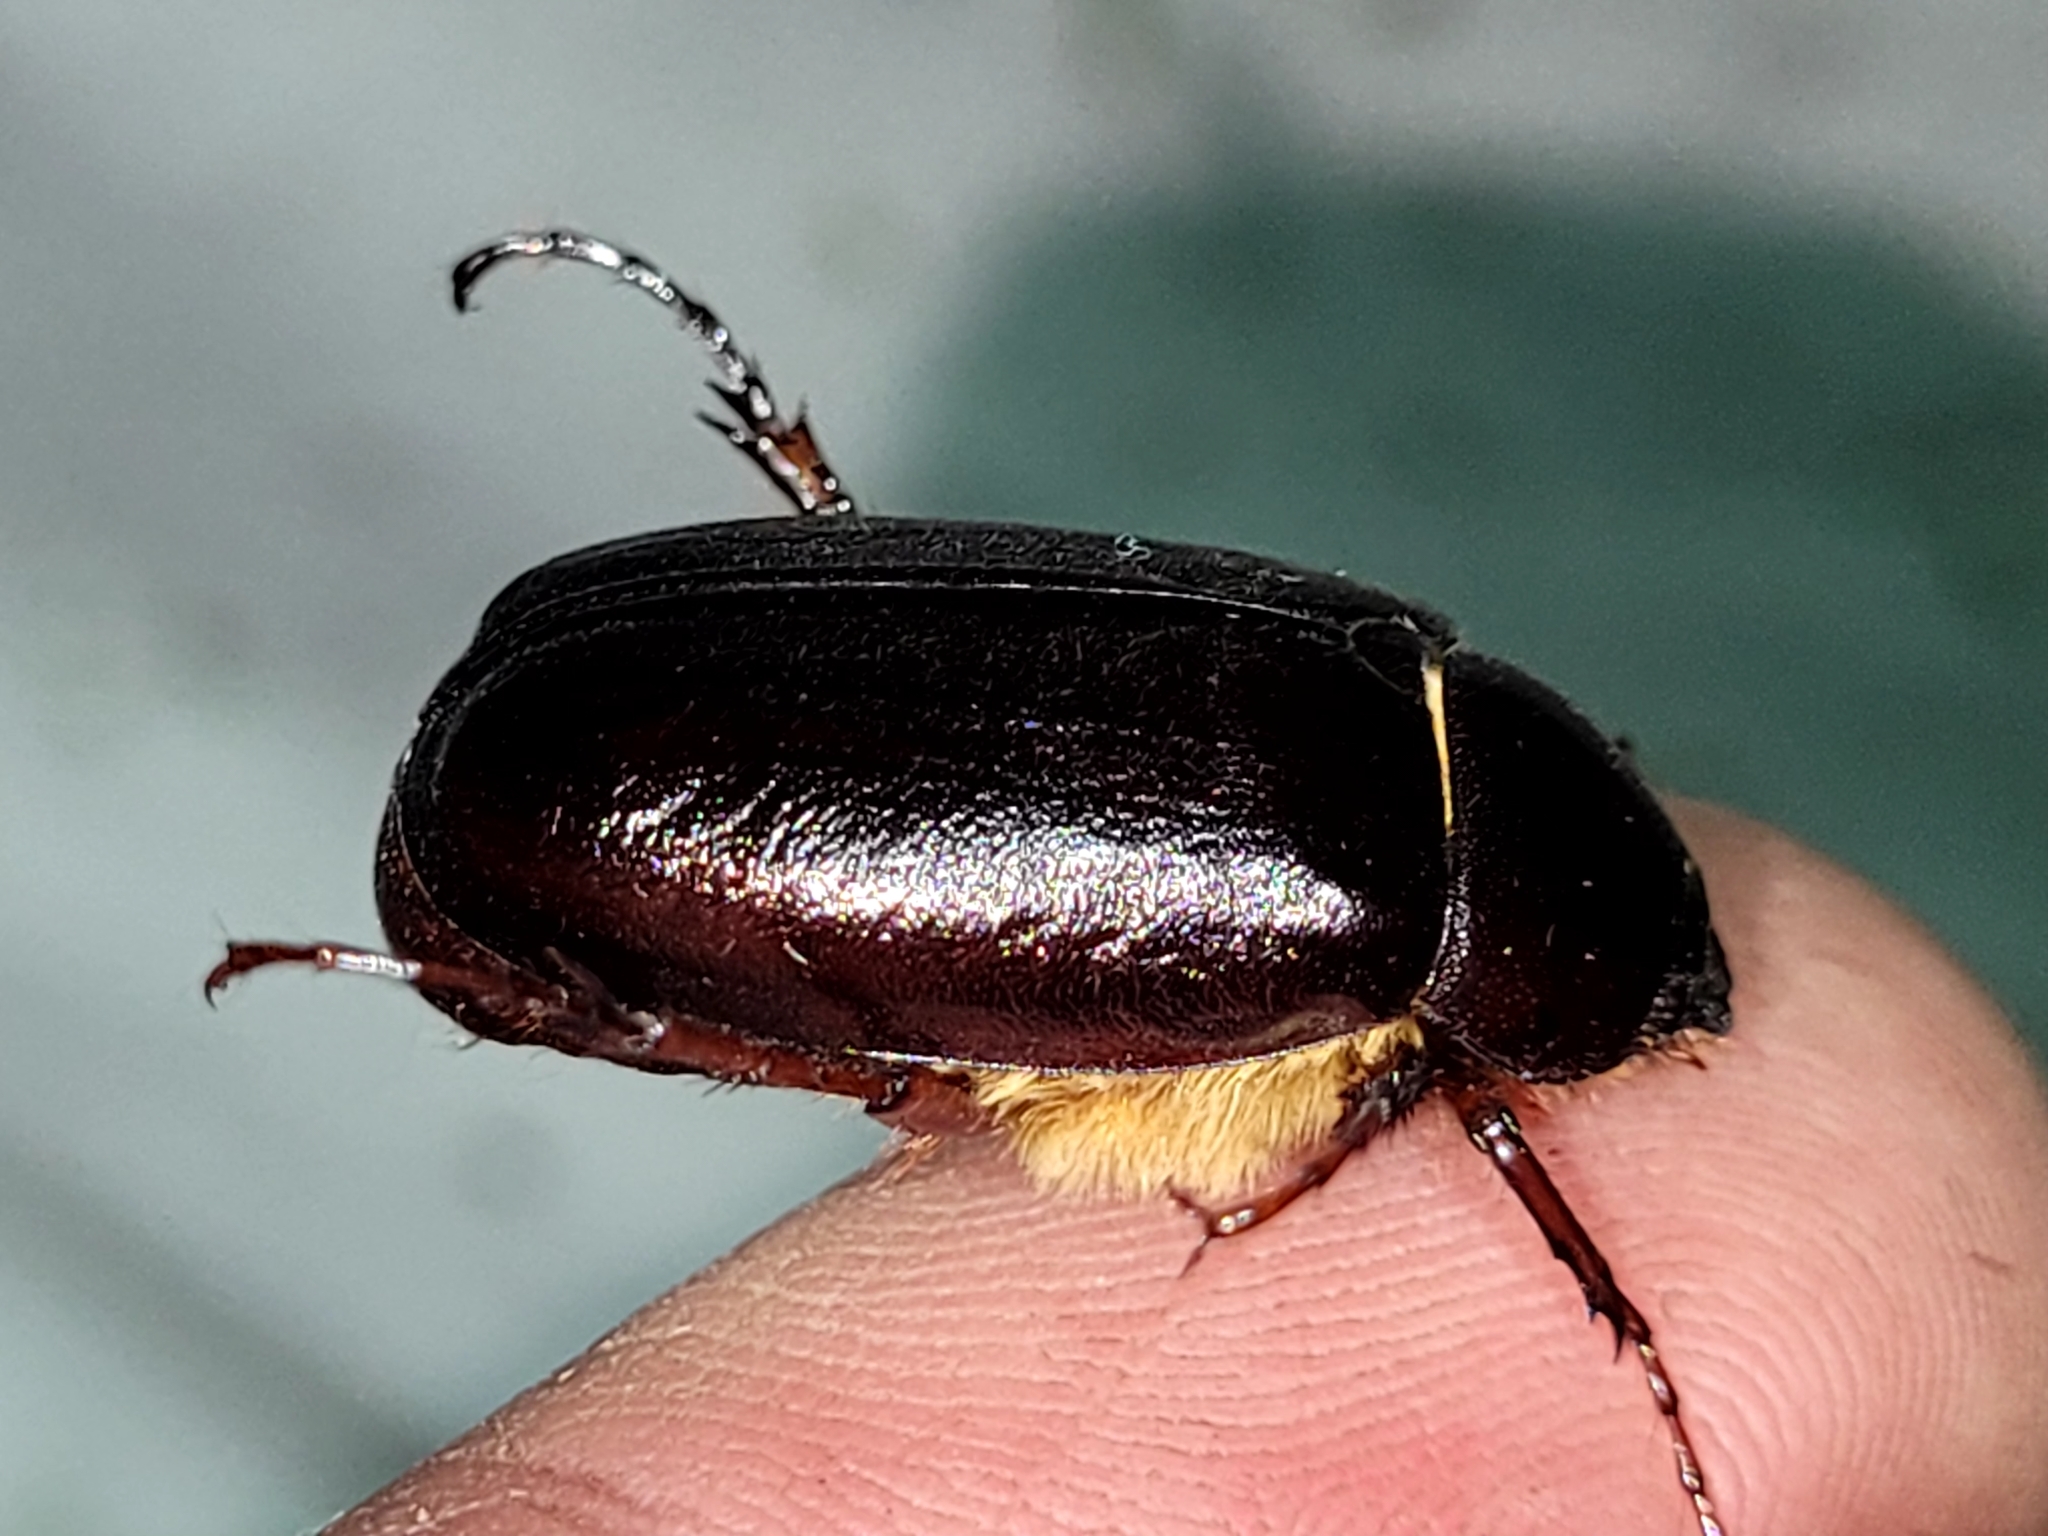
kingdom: Animalia
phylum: Arthropoda
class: Insecta
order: Coleoptera
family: Scarabaeidae
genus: Phyllophaga
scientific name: Phyllophaga anxia
